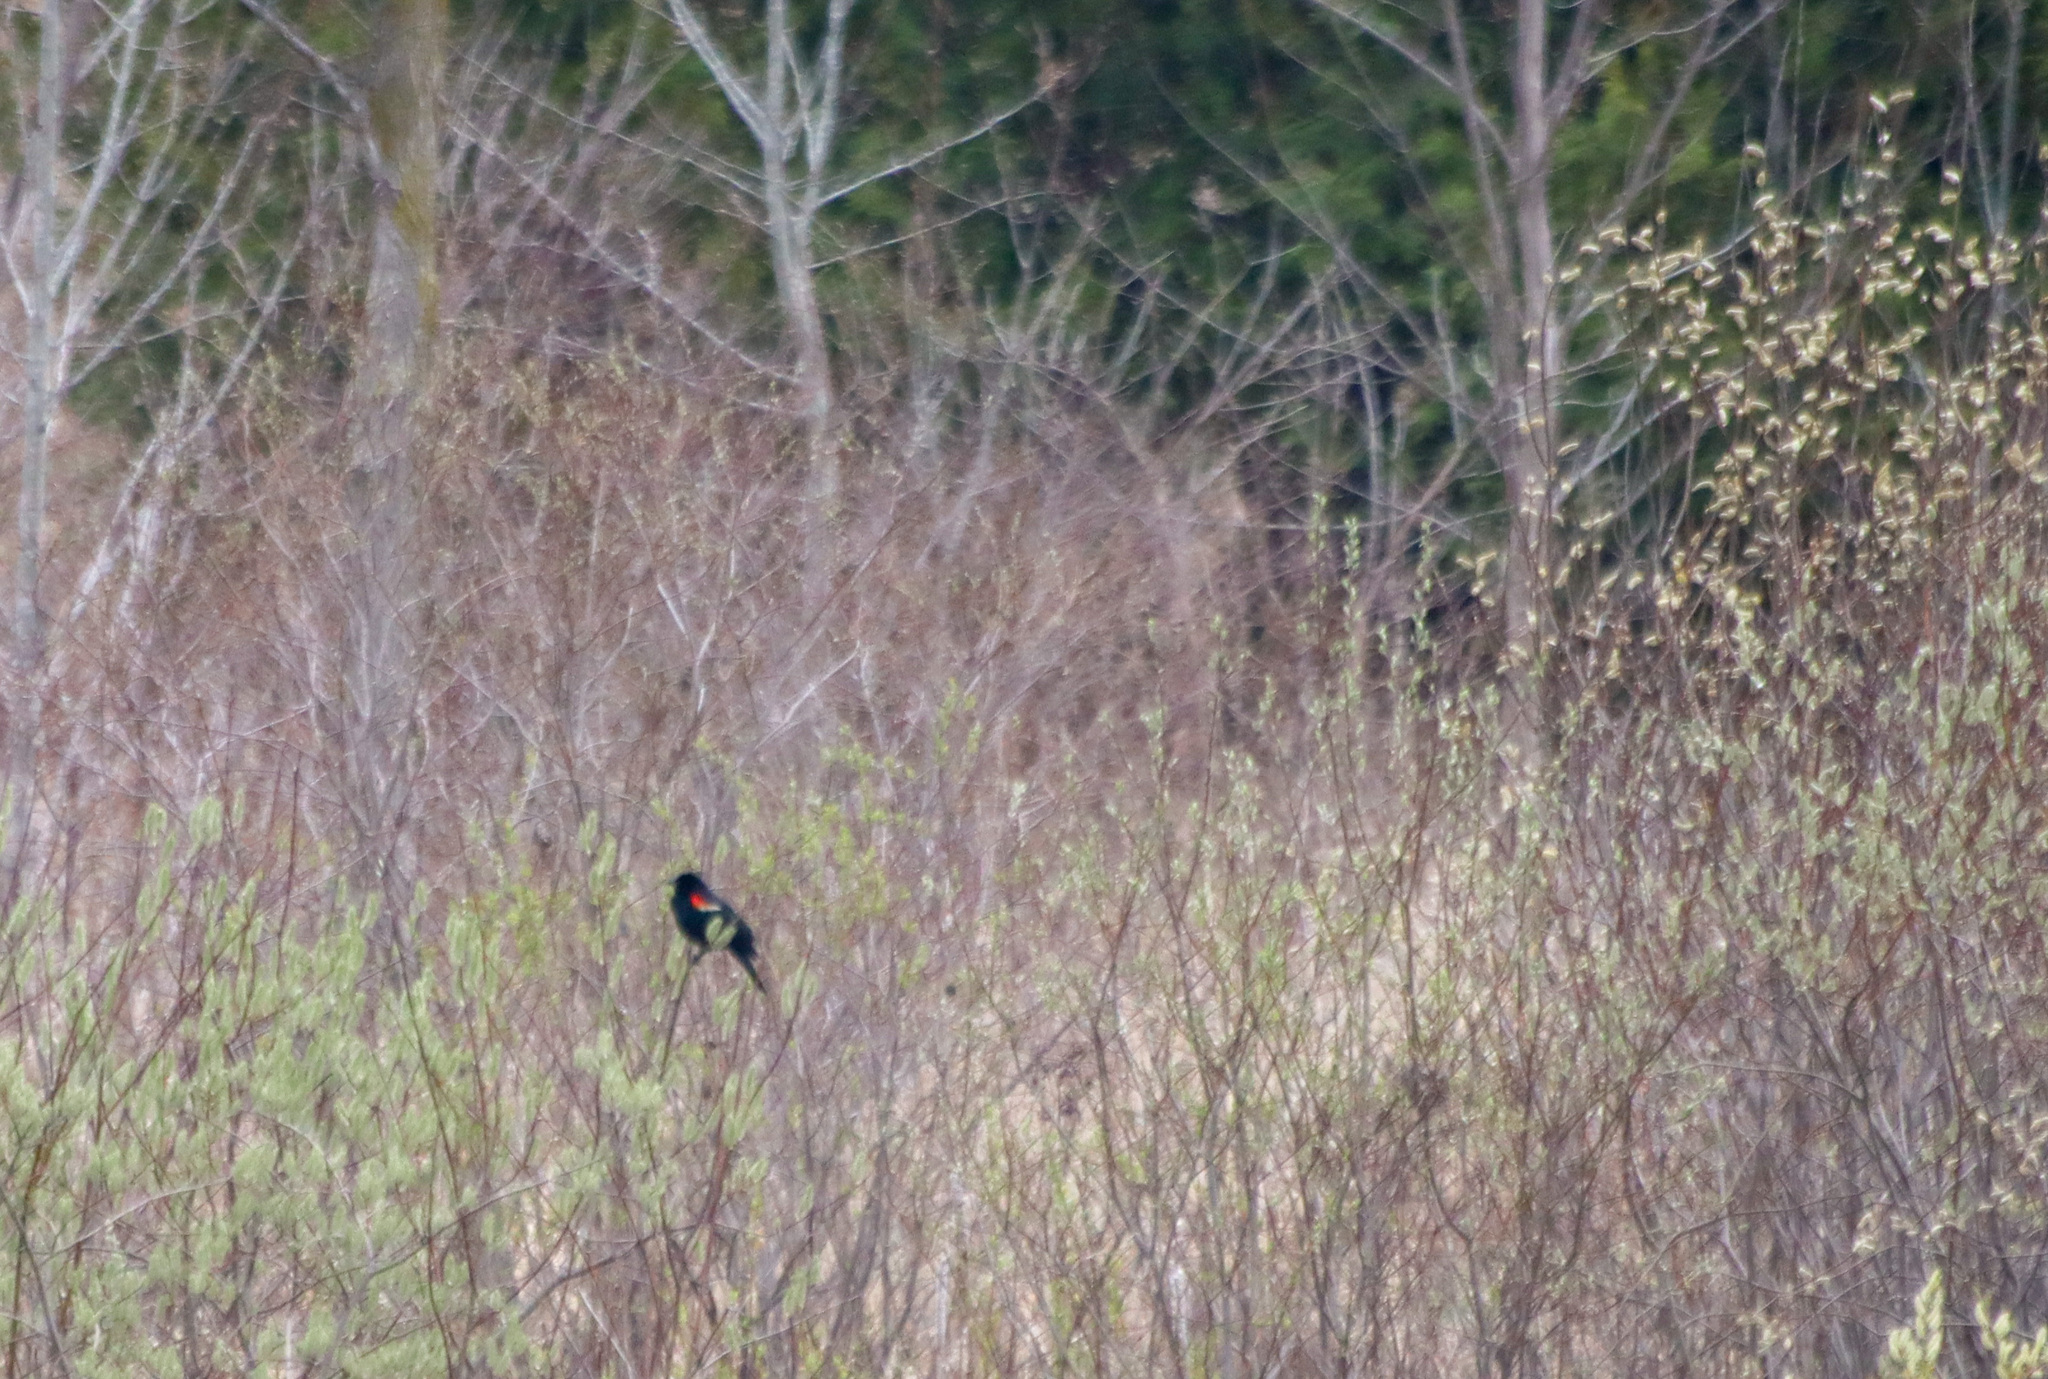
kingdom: Animalia
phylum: Chordata
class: Aves
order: Passeriformes
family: Icteridae
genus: Agelaius
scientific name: Agelaius phoeniceus
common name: Red-winged blackbird
